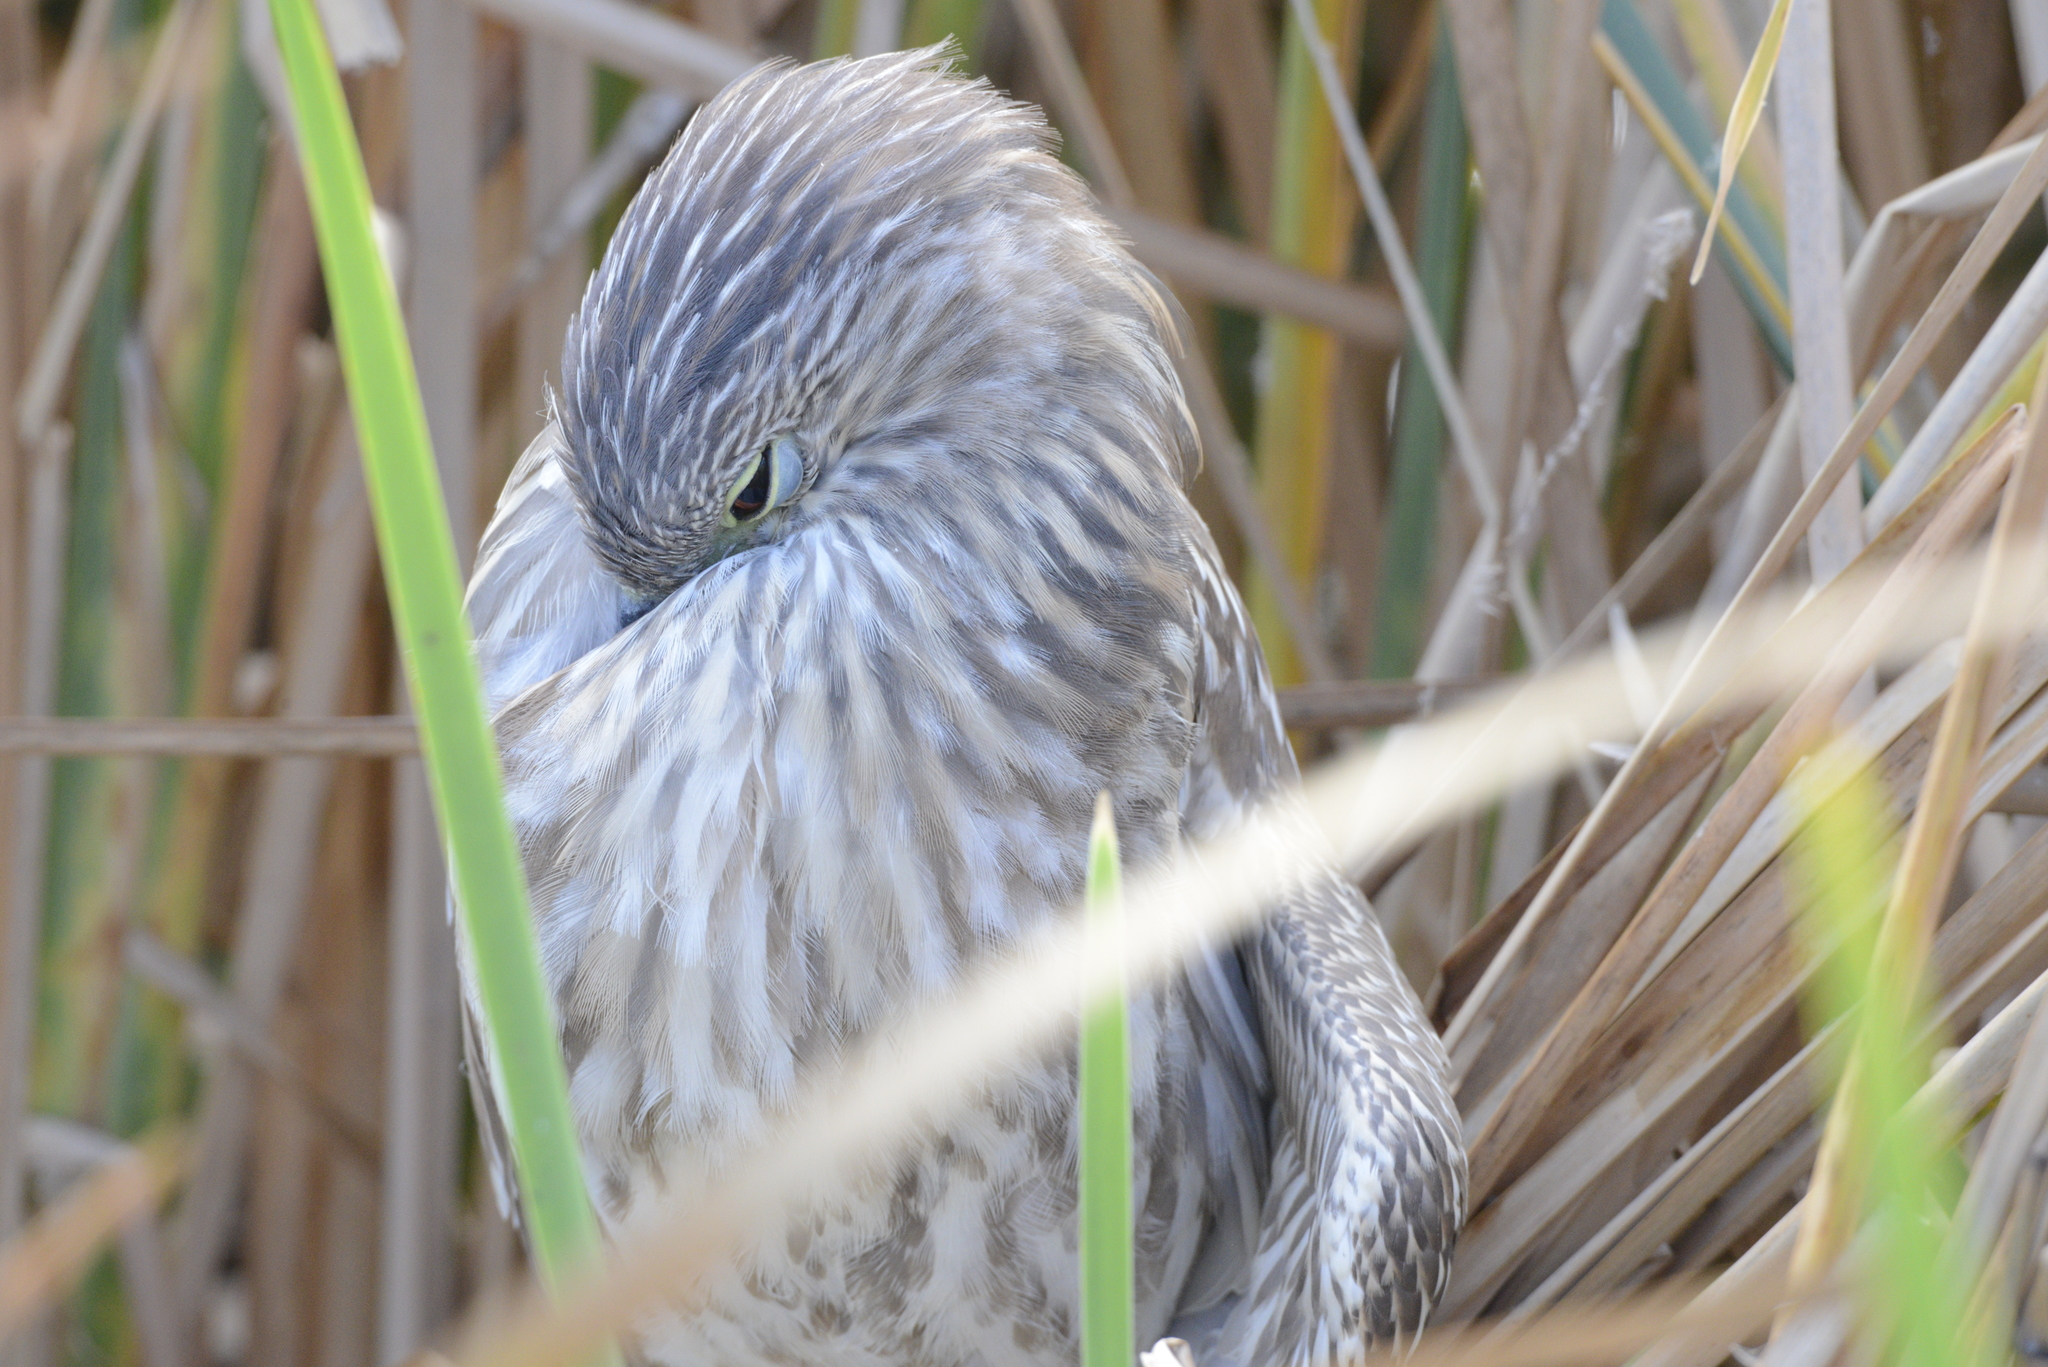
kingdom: Animalia
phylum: Chordata
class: Aves
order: Pelecaniformes
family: Ardeidae
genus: Nycticorax
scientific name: Nycticorax nycticorax
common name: Black-crowned night heron
